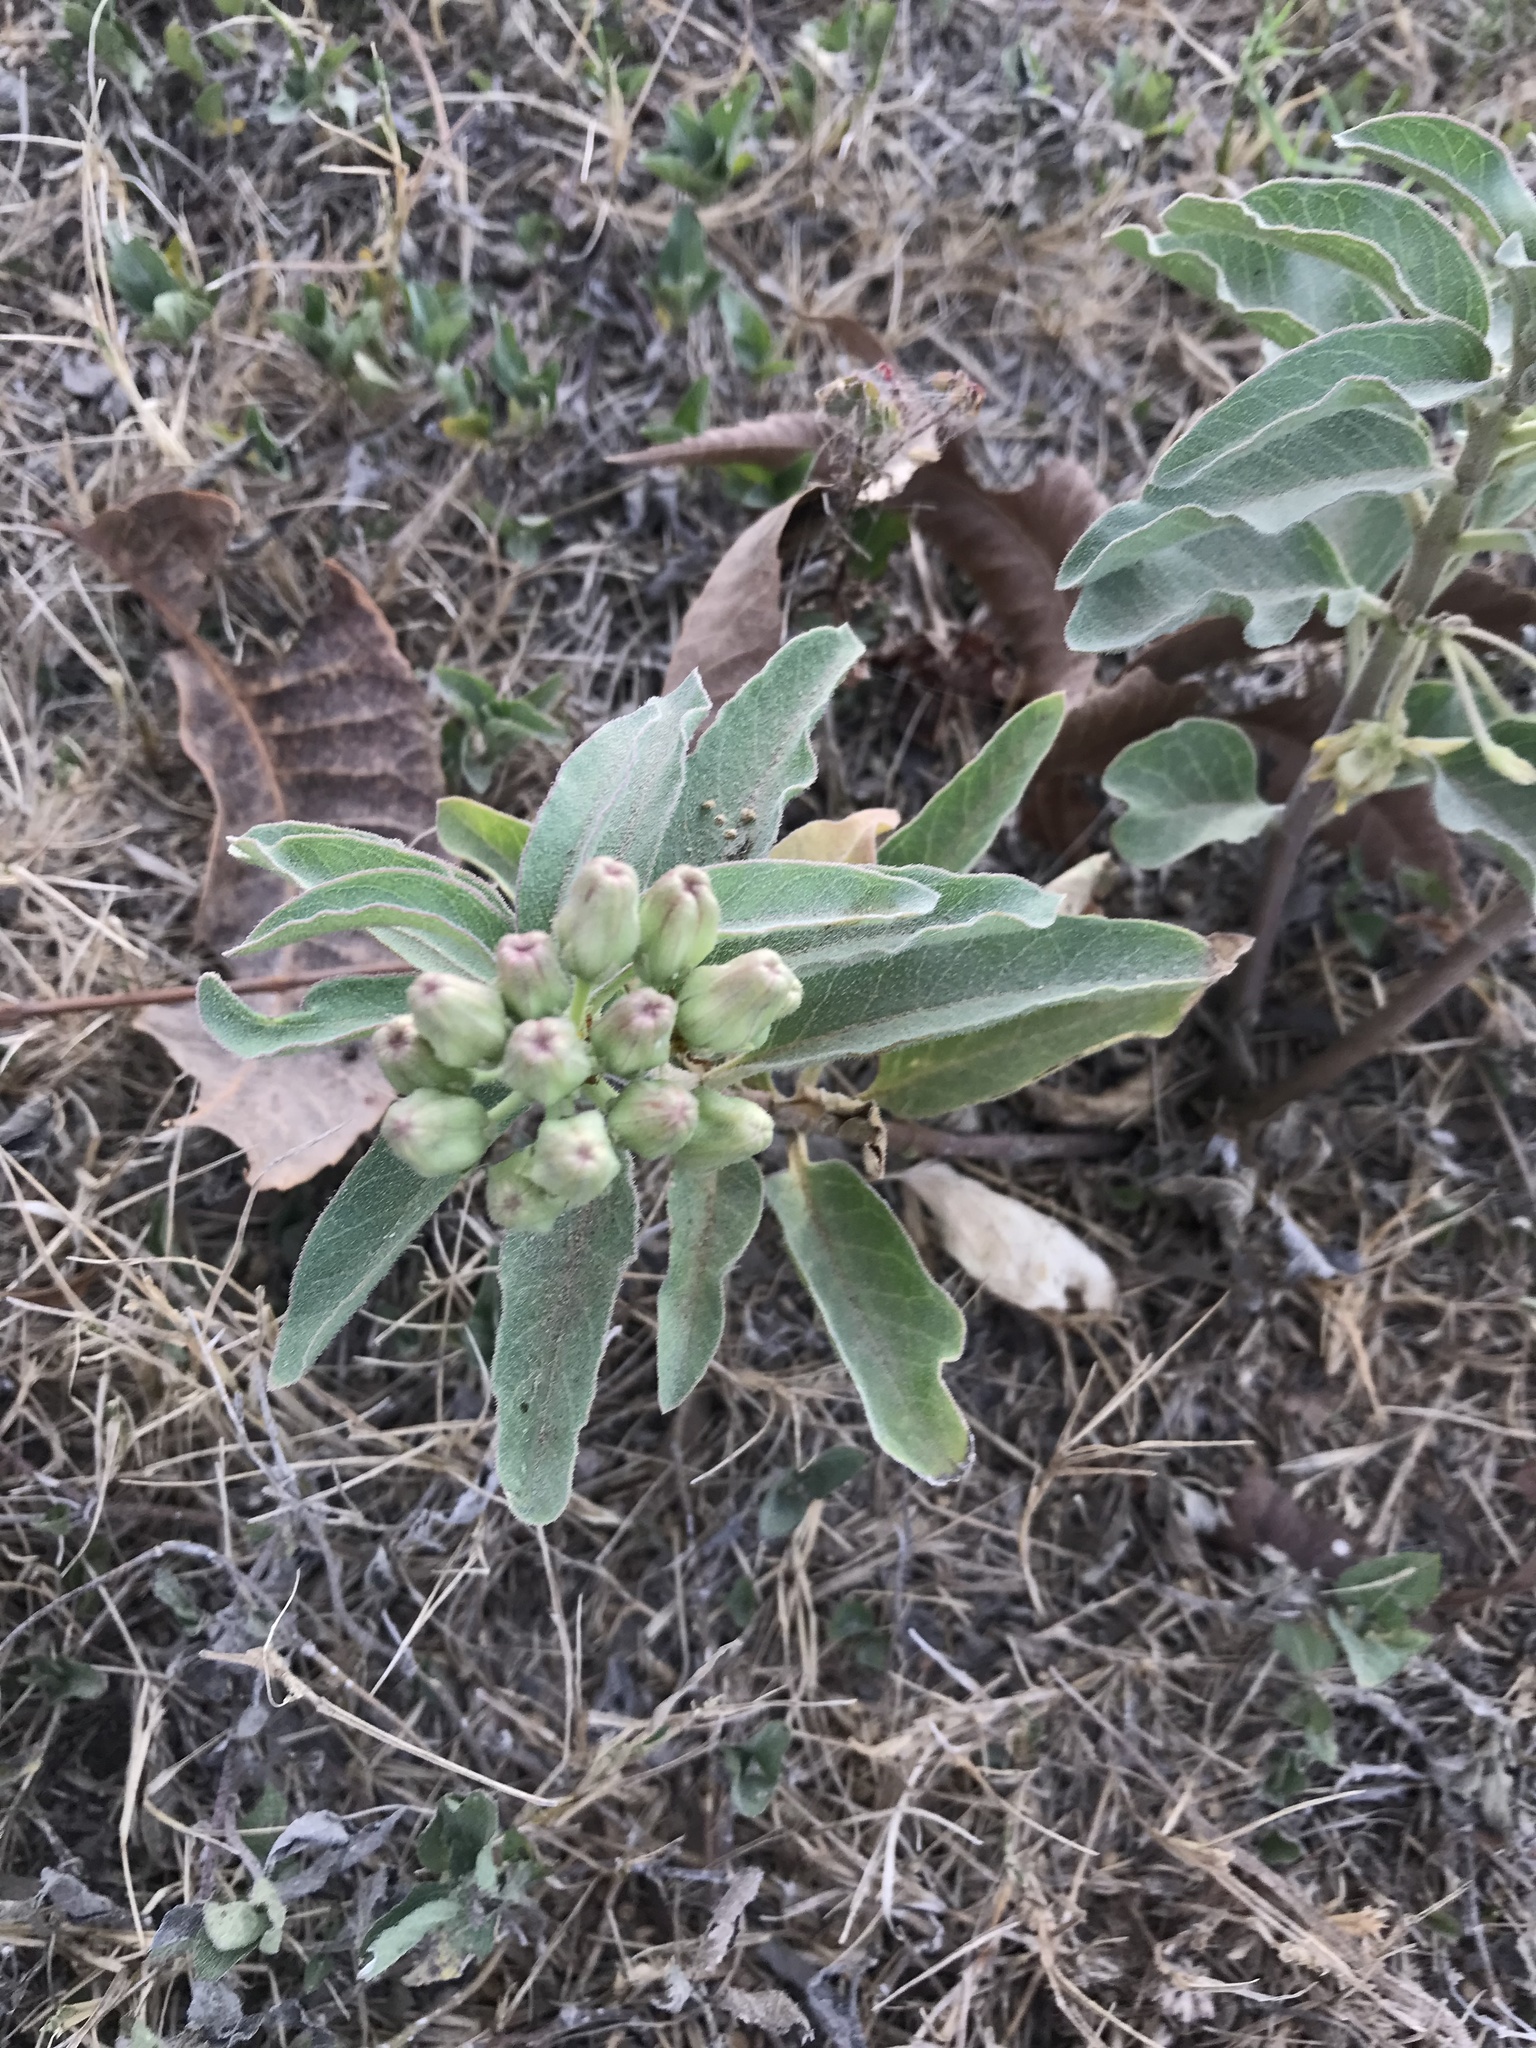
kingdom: Plantae
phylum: Tracheophyta
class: Magnoliopsida
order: Gentianales
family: Apocynaceae
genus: Asclepias
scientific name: Asclepias oenotheroides
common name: Zizotes milkweed
